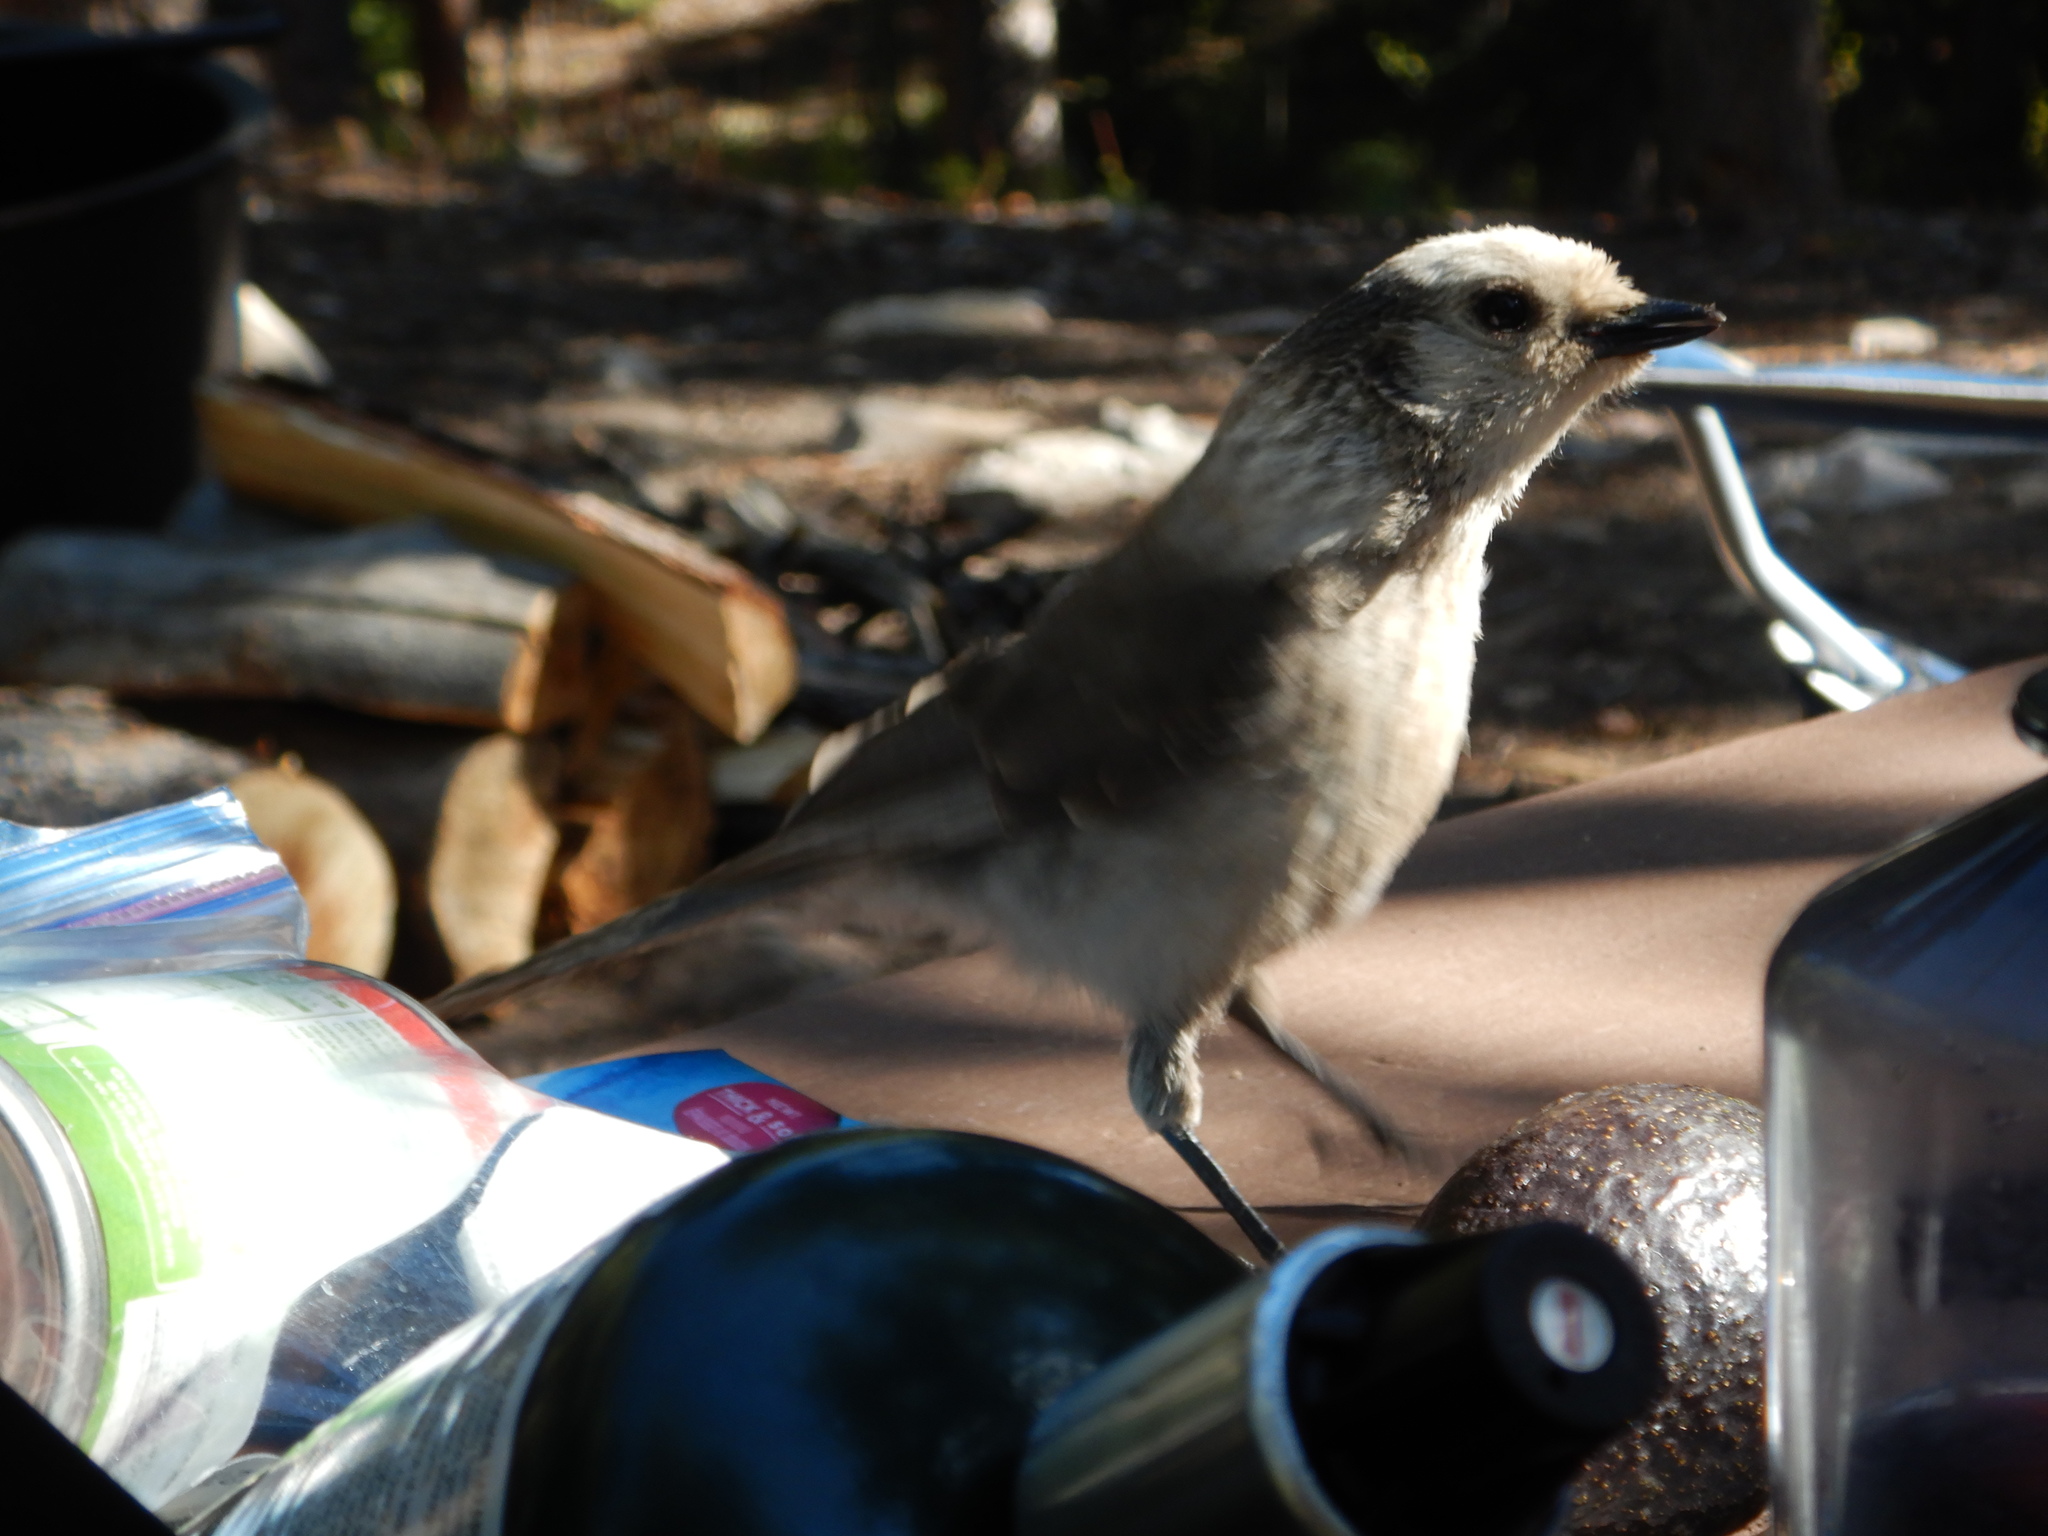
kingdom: Animalia
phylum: Chordata
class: Aves
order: Passeriformes
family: Corvidae
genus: Perisoreus
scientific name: Perisoreus canadensis
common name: Gray jay
